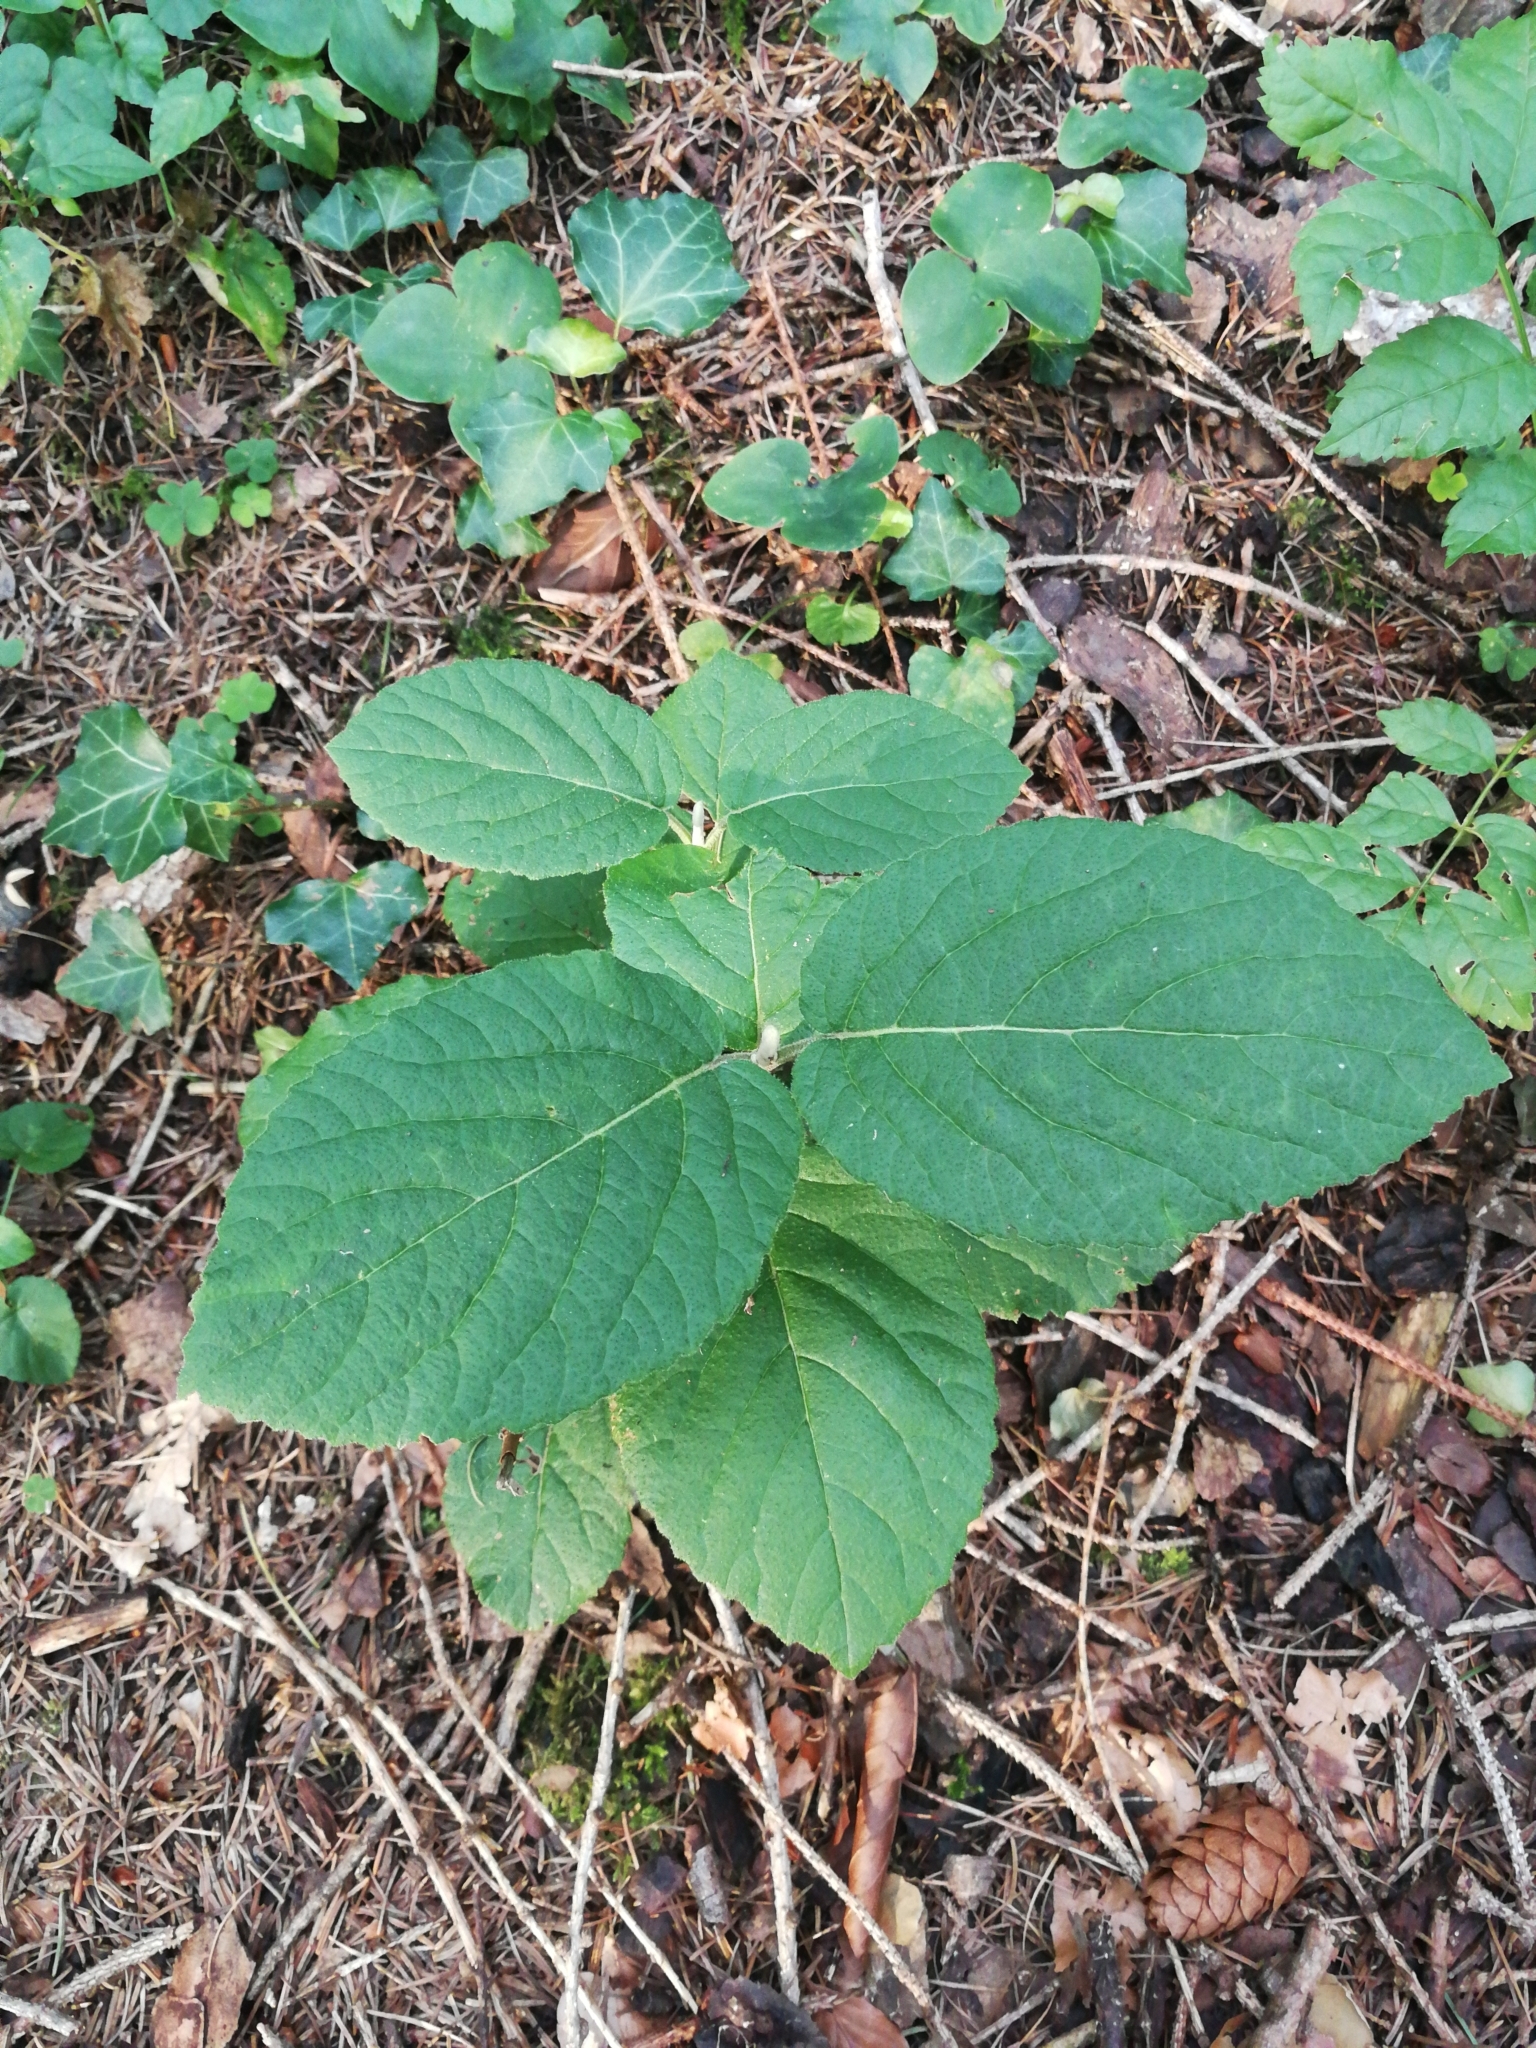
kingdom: Plantae
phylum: Tracheophyta
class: Magnoliopsida
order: Dipsacales
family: Viburnaceae
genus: Viburnum
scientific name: Viburnum lantana
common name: Wayfaring tree
